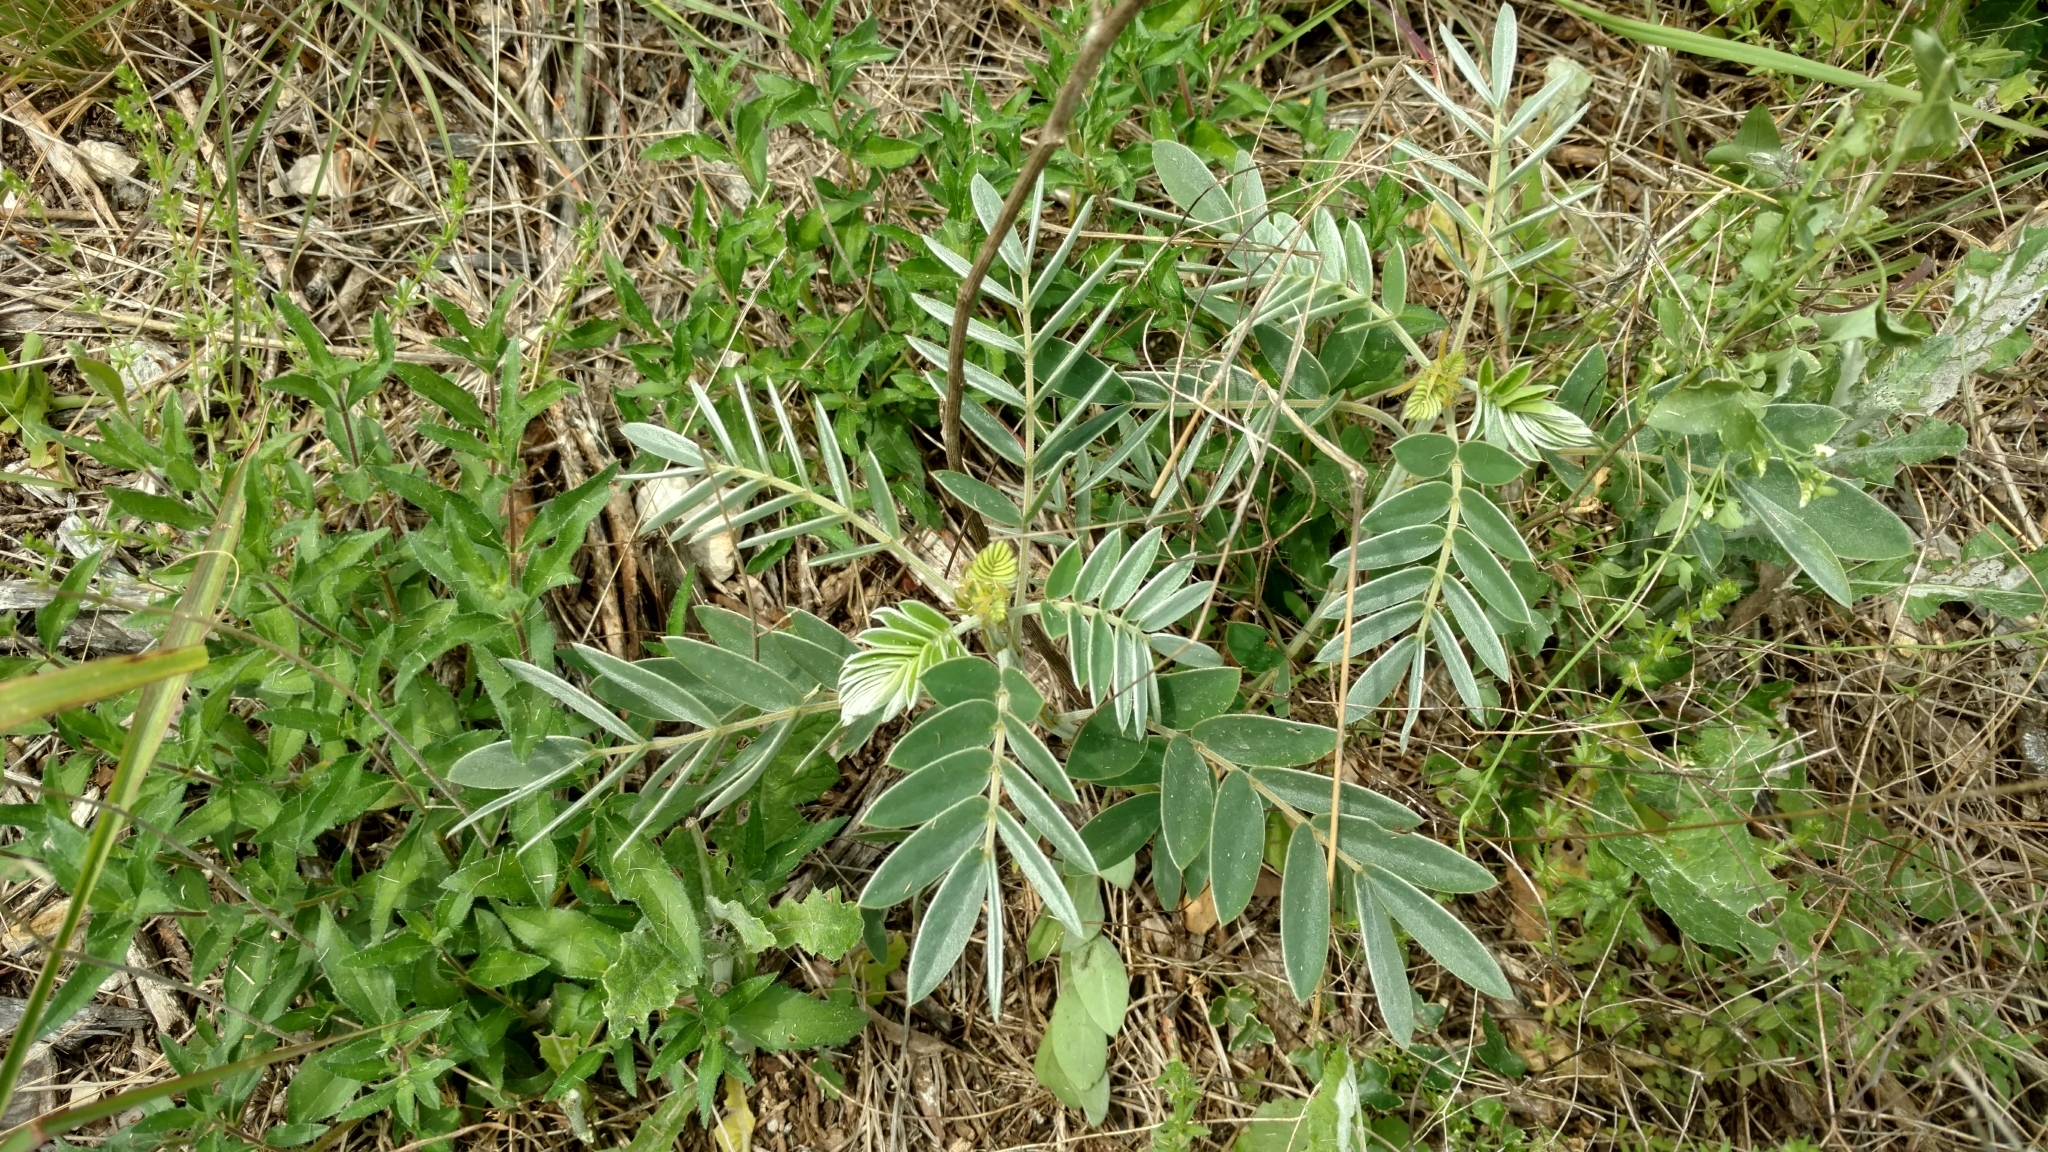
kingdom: Plantae
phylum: Tracheophyta
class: Magnoliopsida
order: Fabales
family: Fabaceae
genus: Senna
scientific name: Senna lindheimeriana
